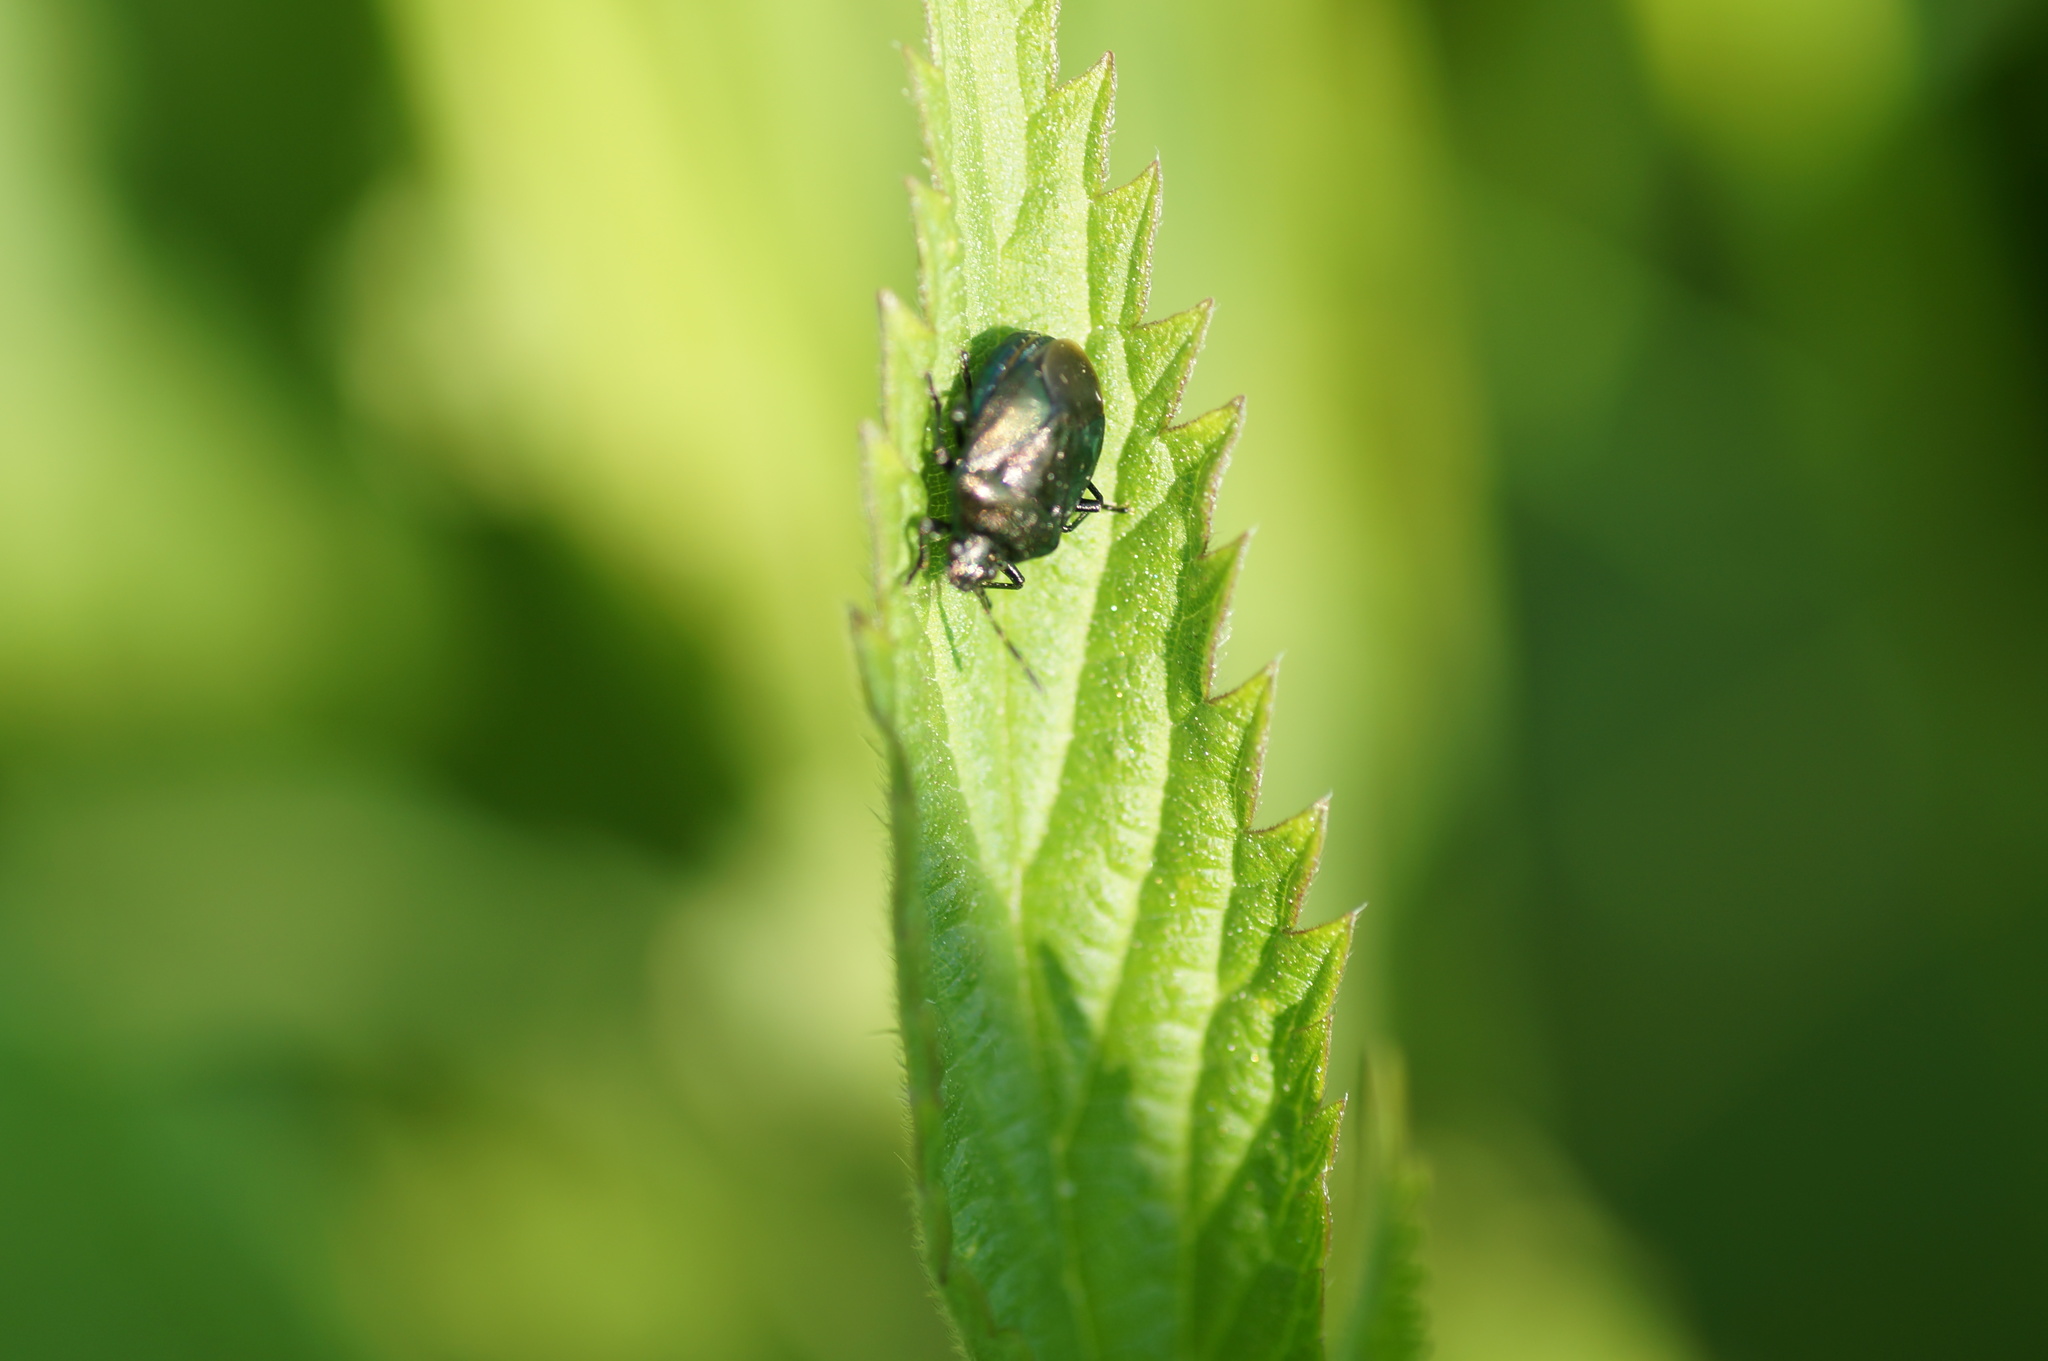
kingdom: Animalia
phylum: Arthropoda
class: Insecta
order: Hemiptera
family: Pentatomidae
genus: Zicrona
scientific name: Zicrona caerulea
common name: Blue shieldbug
